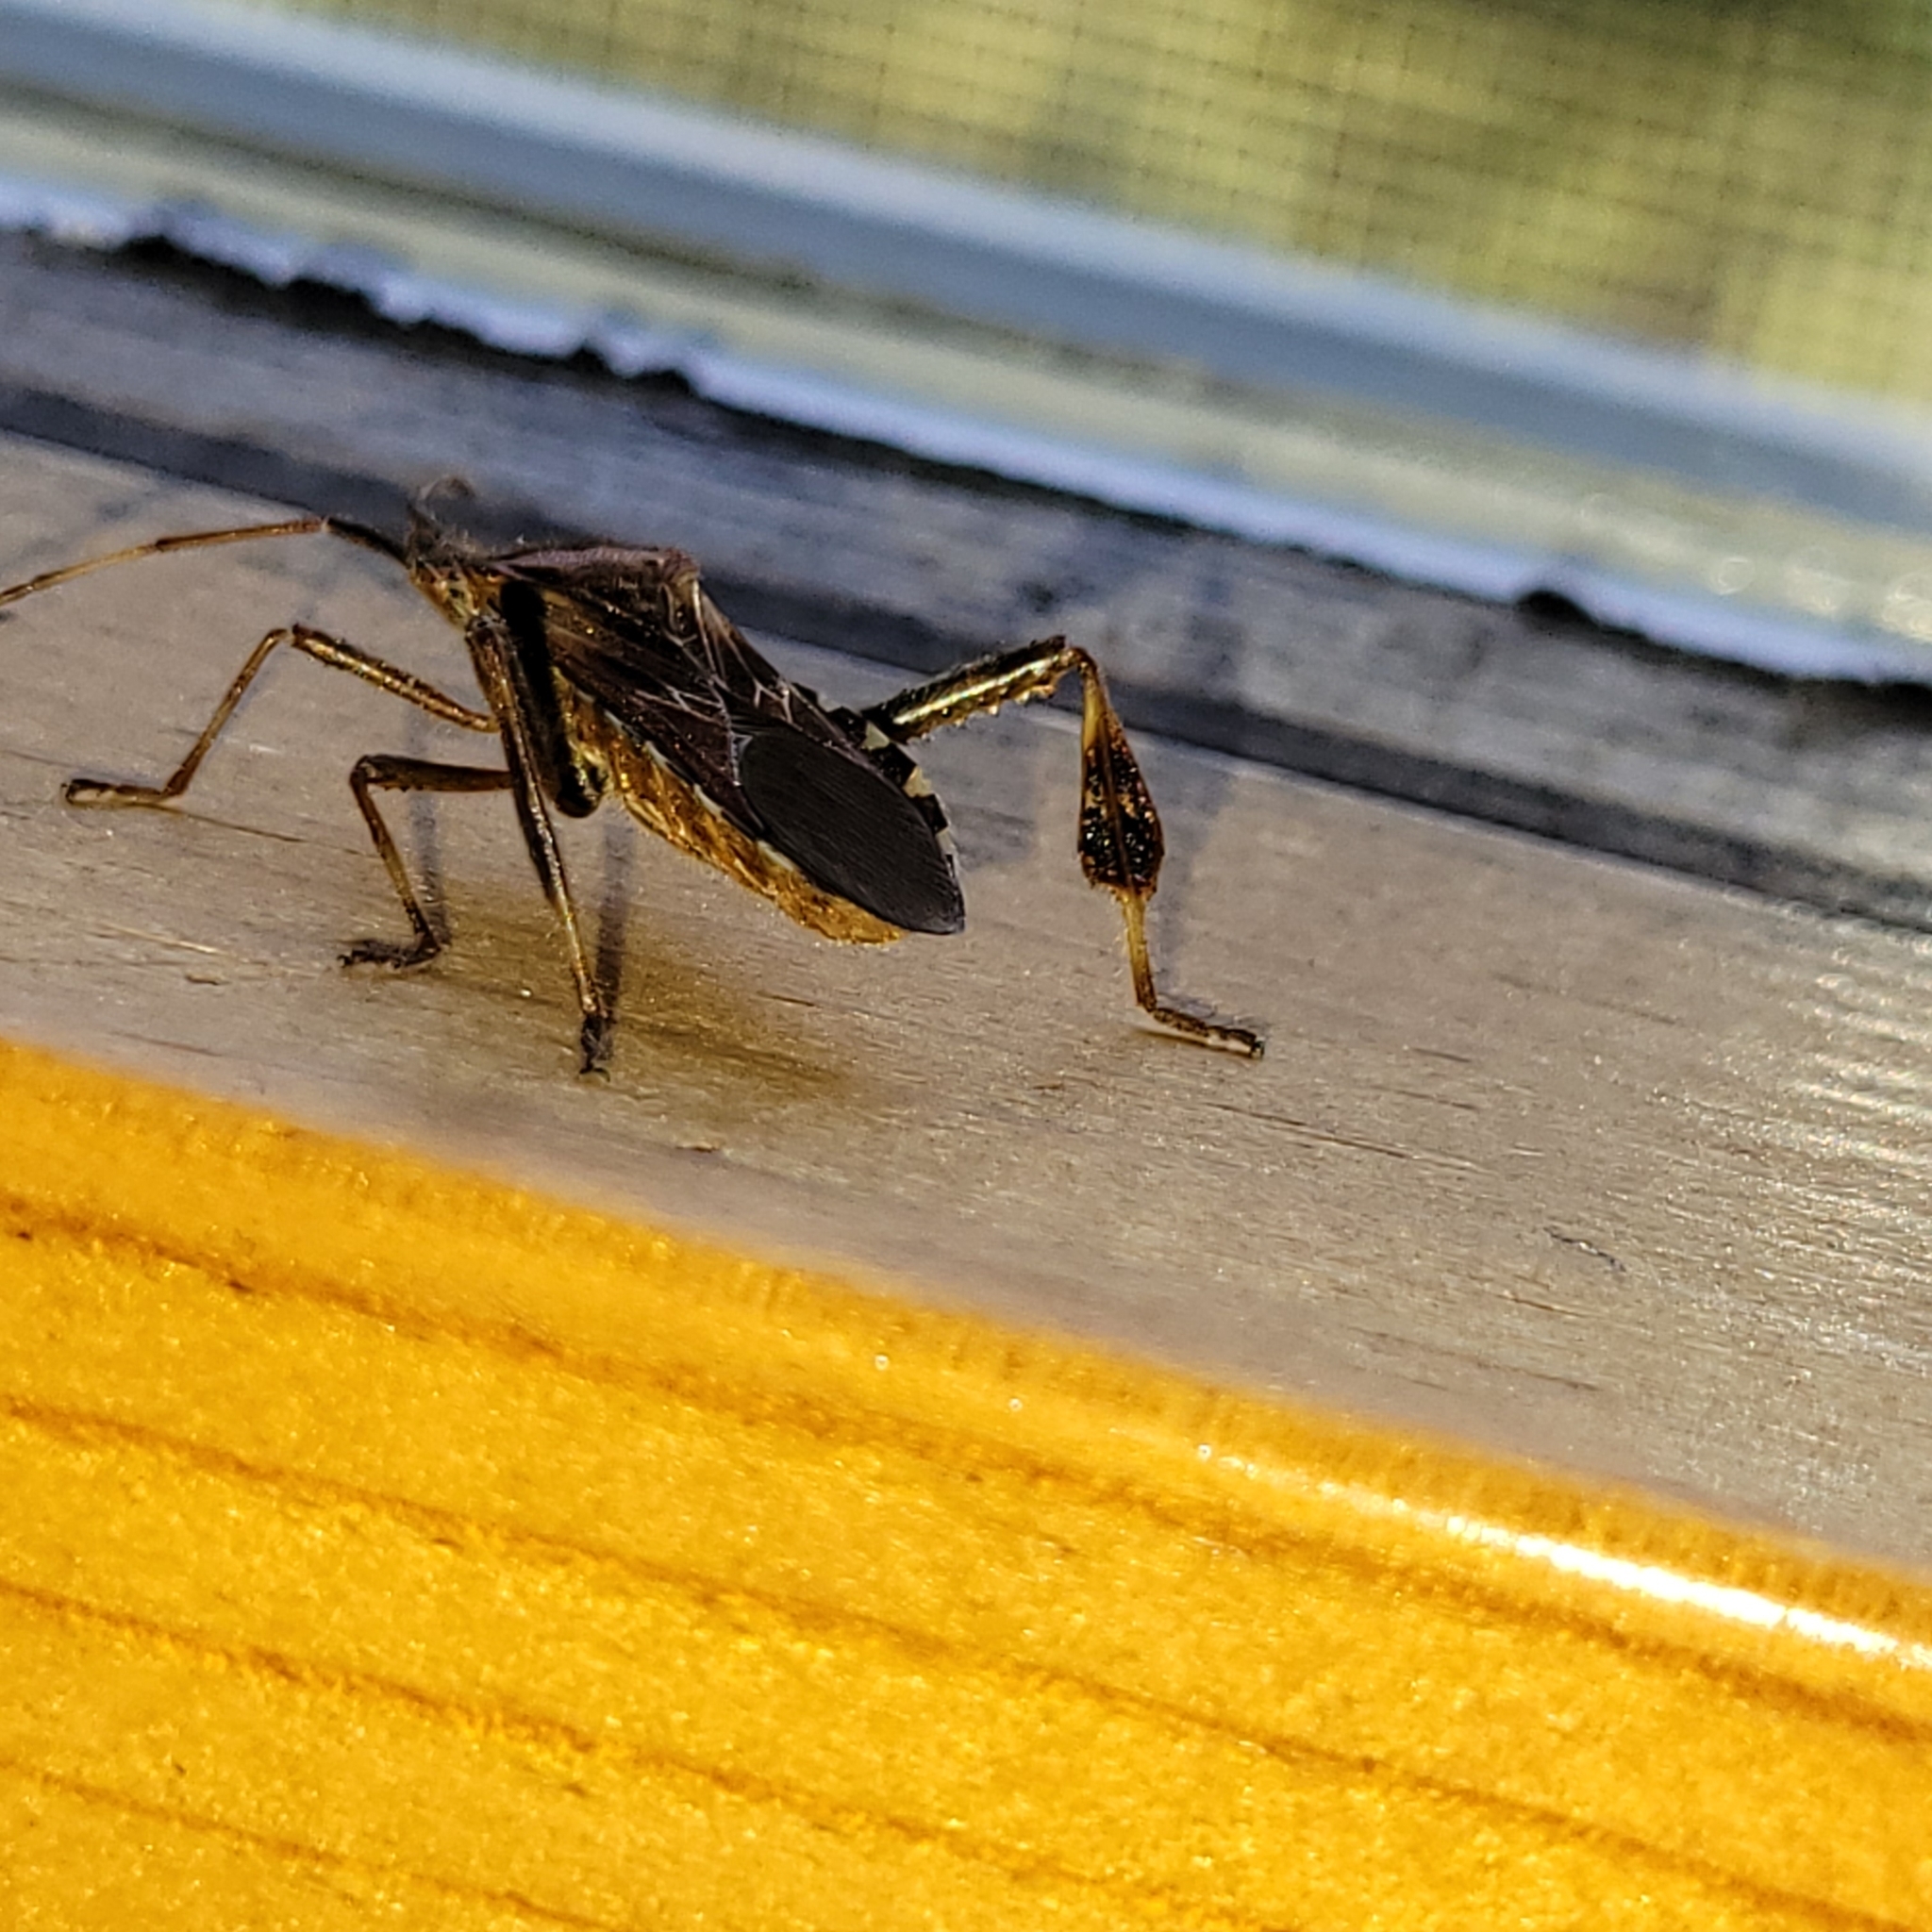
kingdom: Animalia
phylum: Arthropoda
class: Insecta
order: Hemiptera
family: Coreidae
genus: Leptoglossus
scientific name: Leptoglossus occidentalis
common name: Western conifer-seed bug
